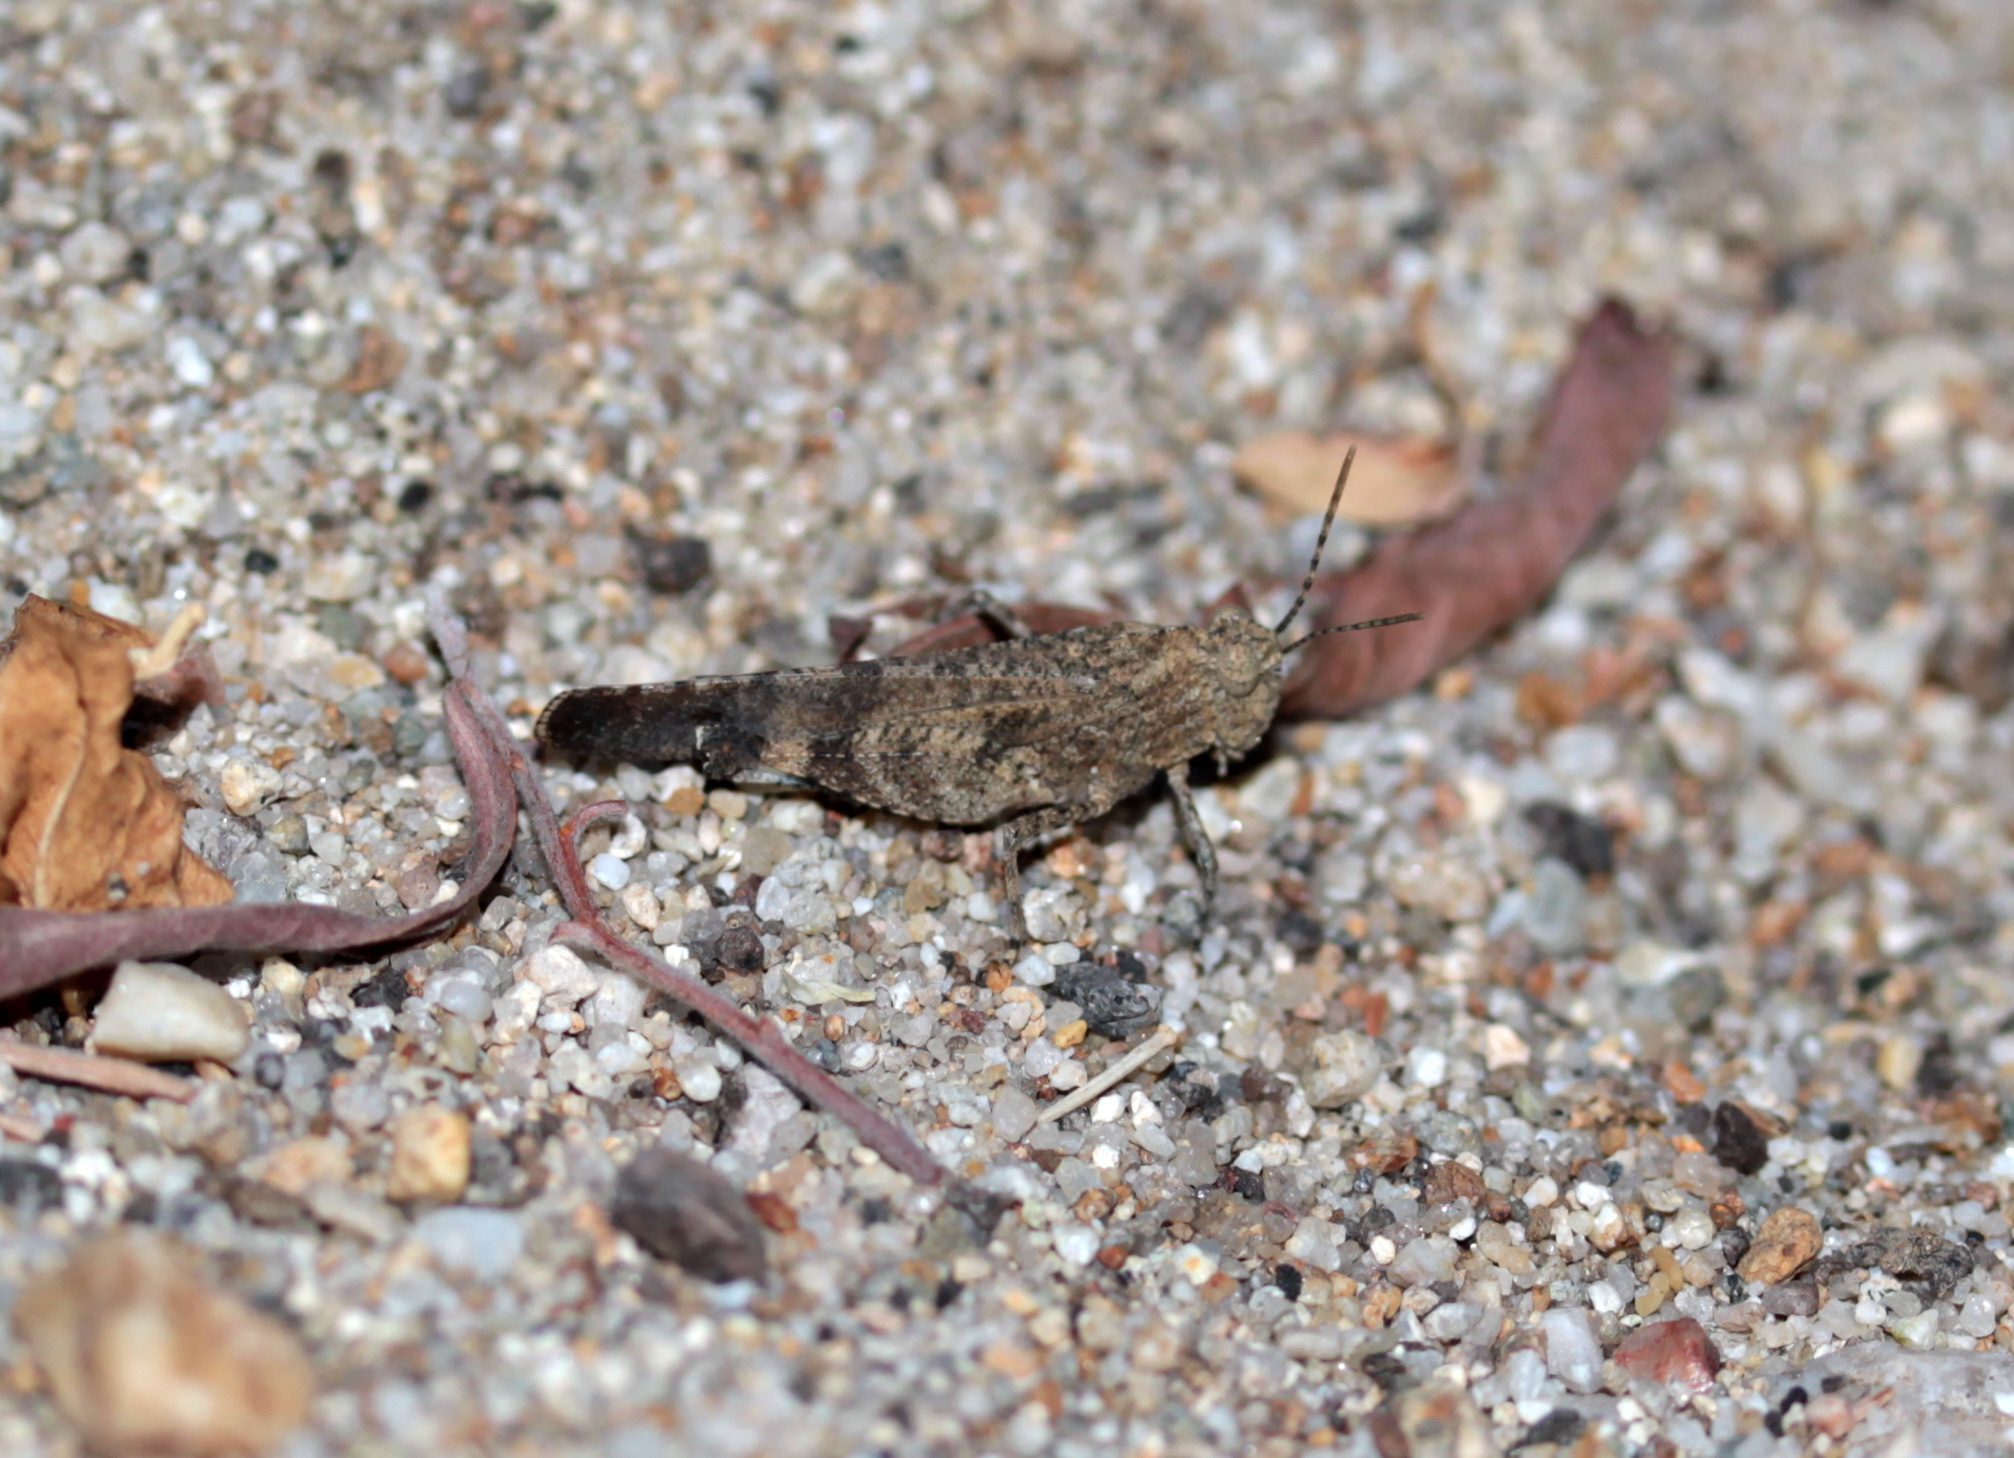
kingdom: Animalia
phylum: Arthropoda
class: Insecta
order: Orthoptera
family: Acrididae
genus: Lactista
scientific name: Lactista gibbosus
